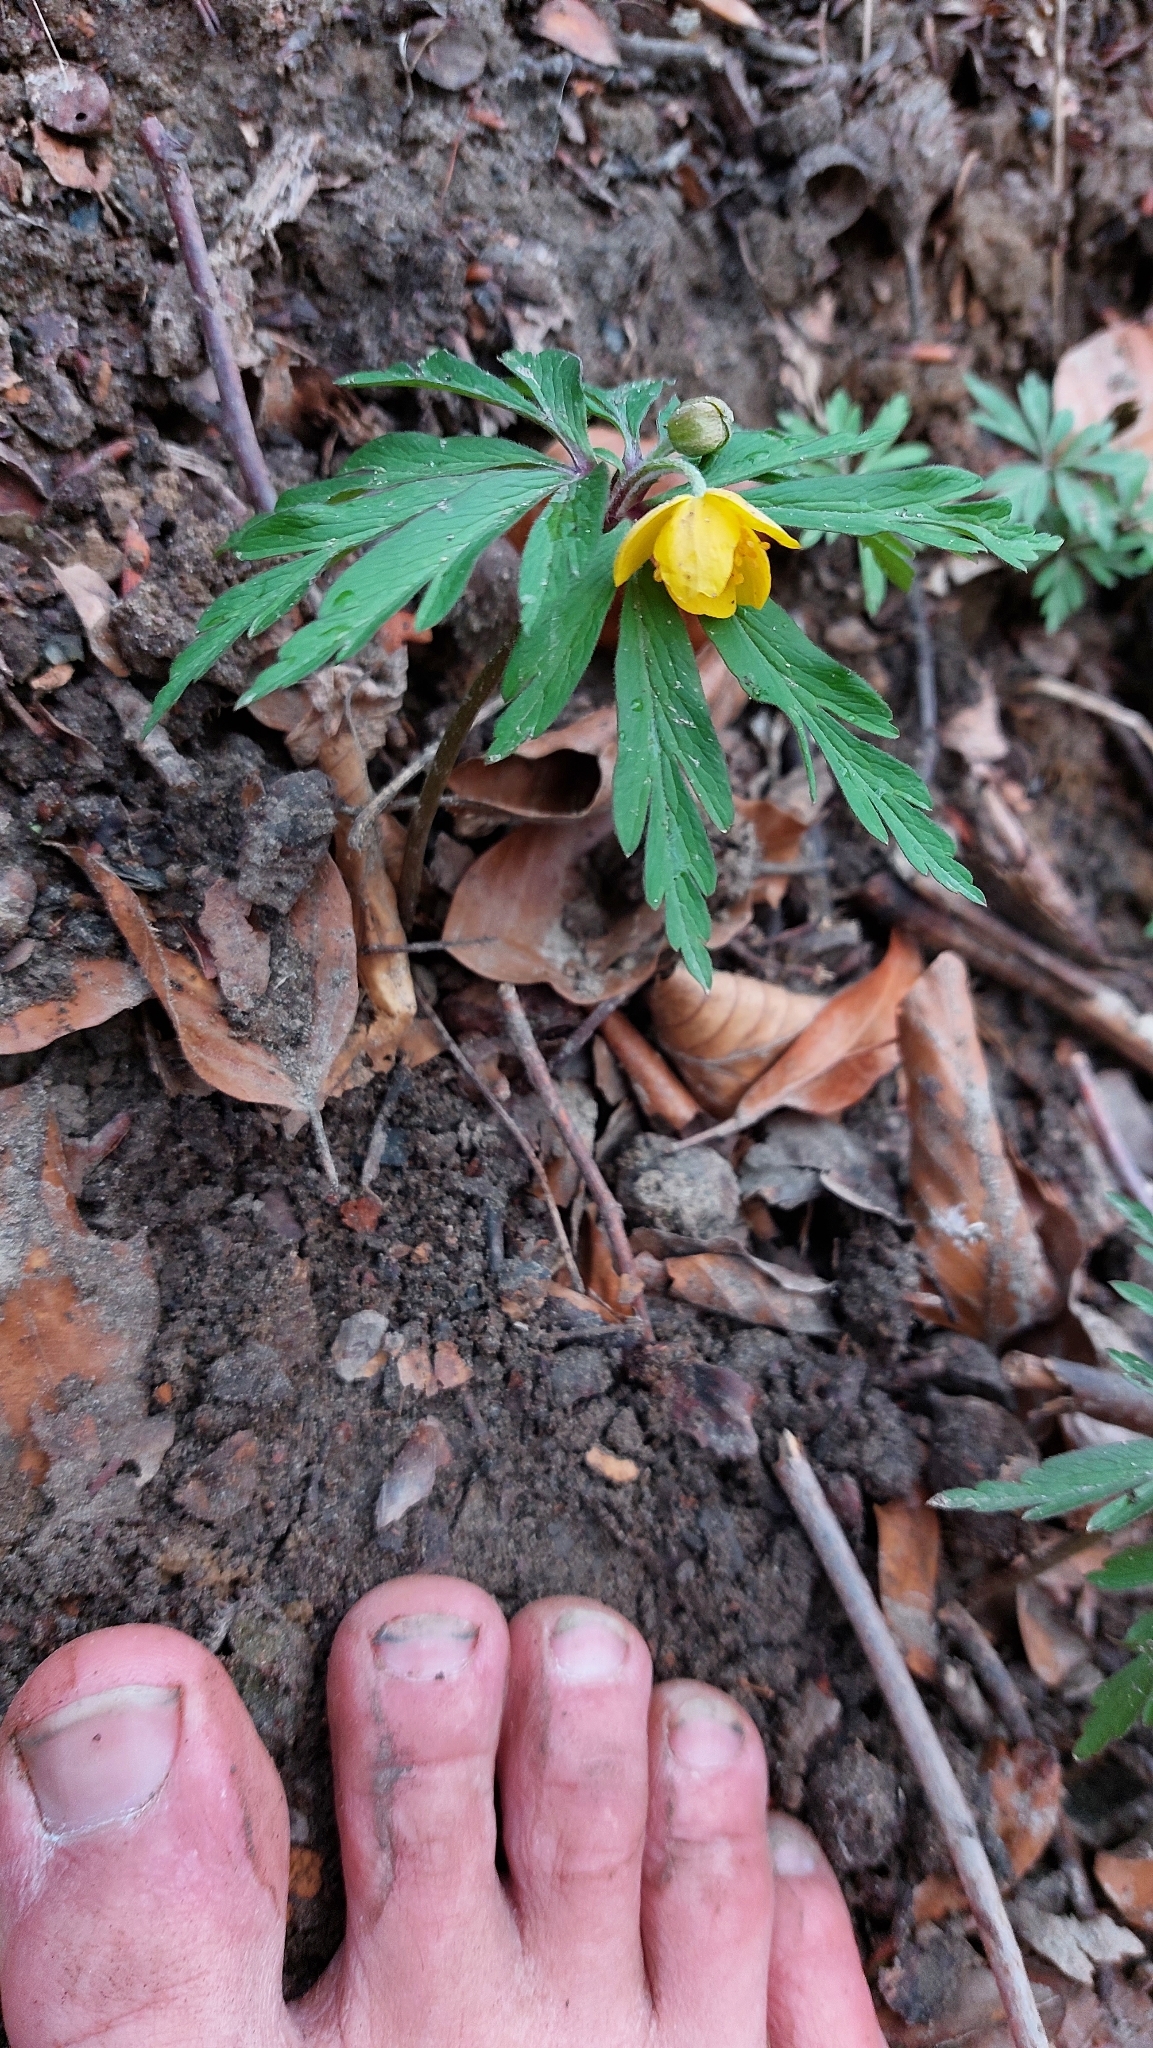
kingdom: Plantae
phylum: Tracheophyta
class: Magnoliopsida
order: Ranunculales
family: Ranunculaceae
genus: Anemone
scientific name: Anemone ranunculoides
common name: Yellow anemone
